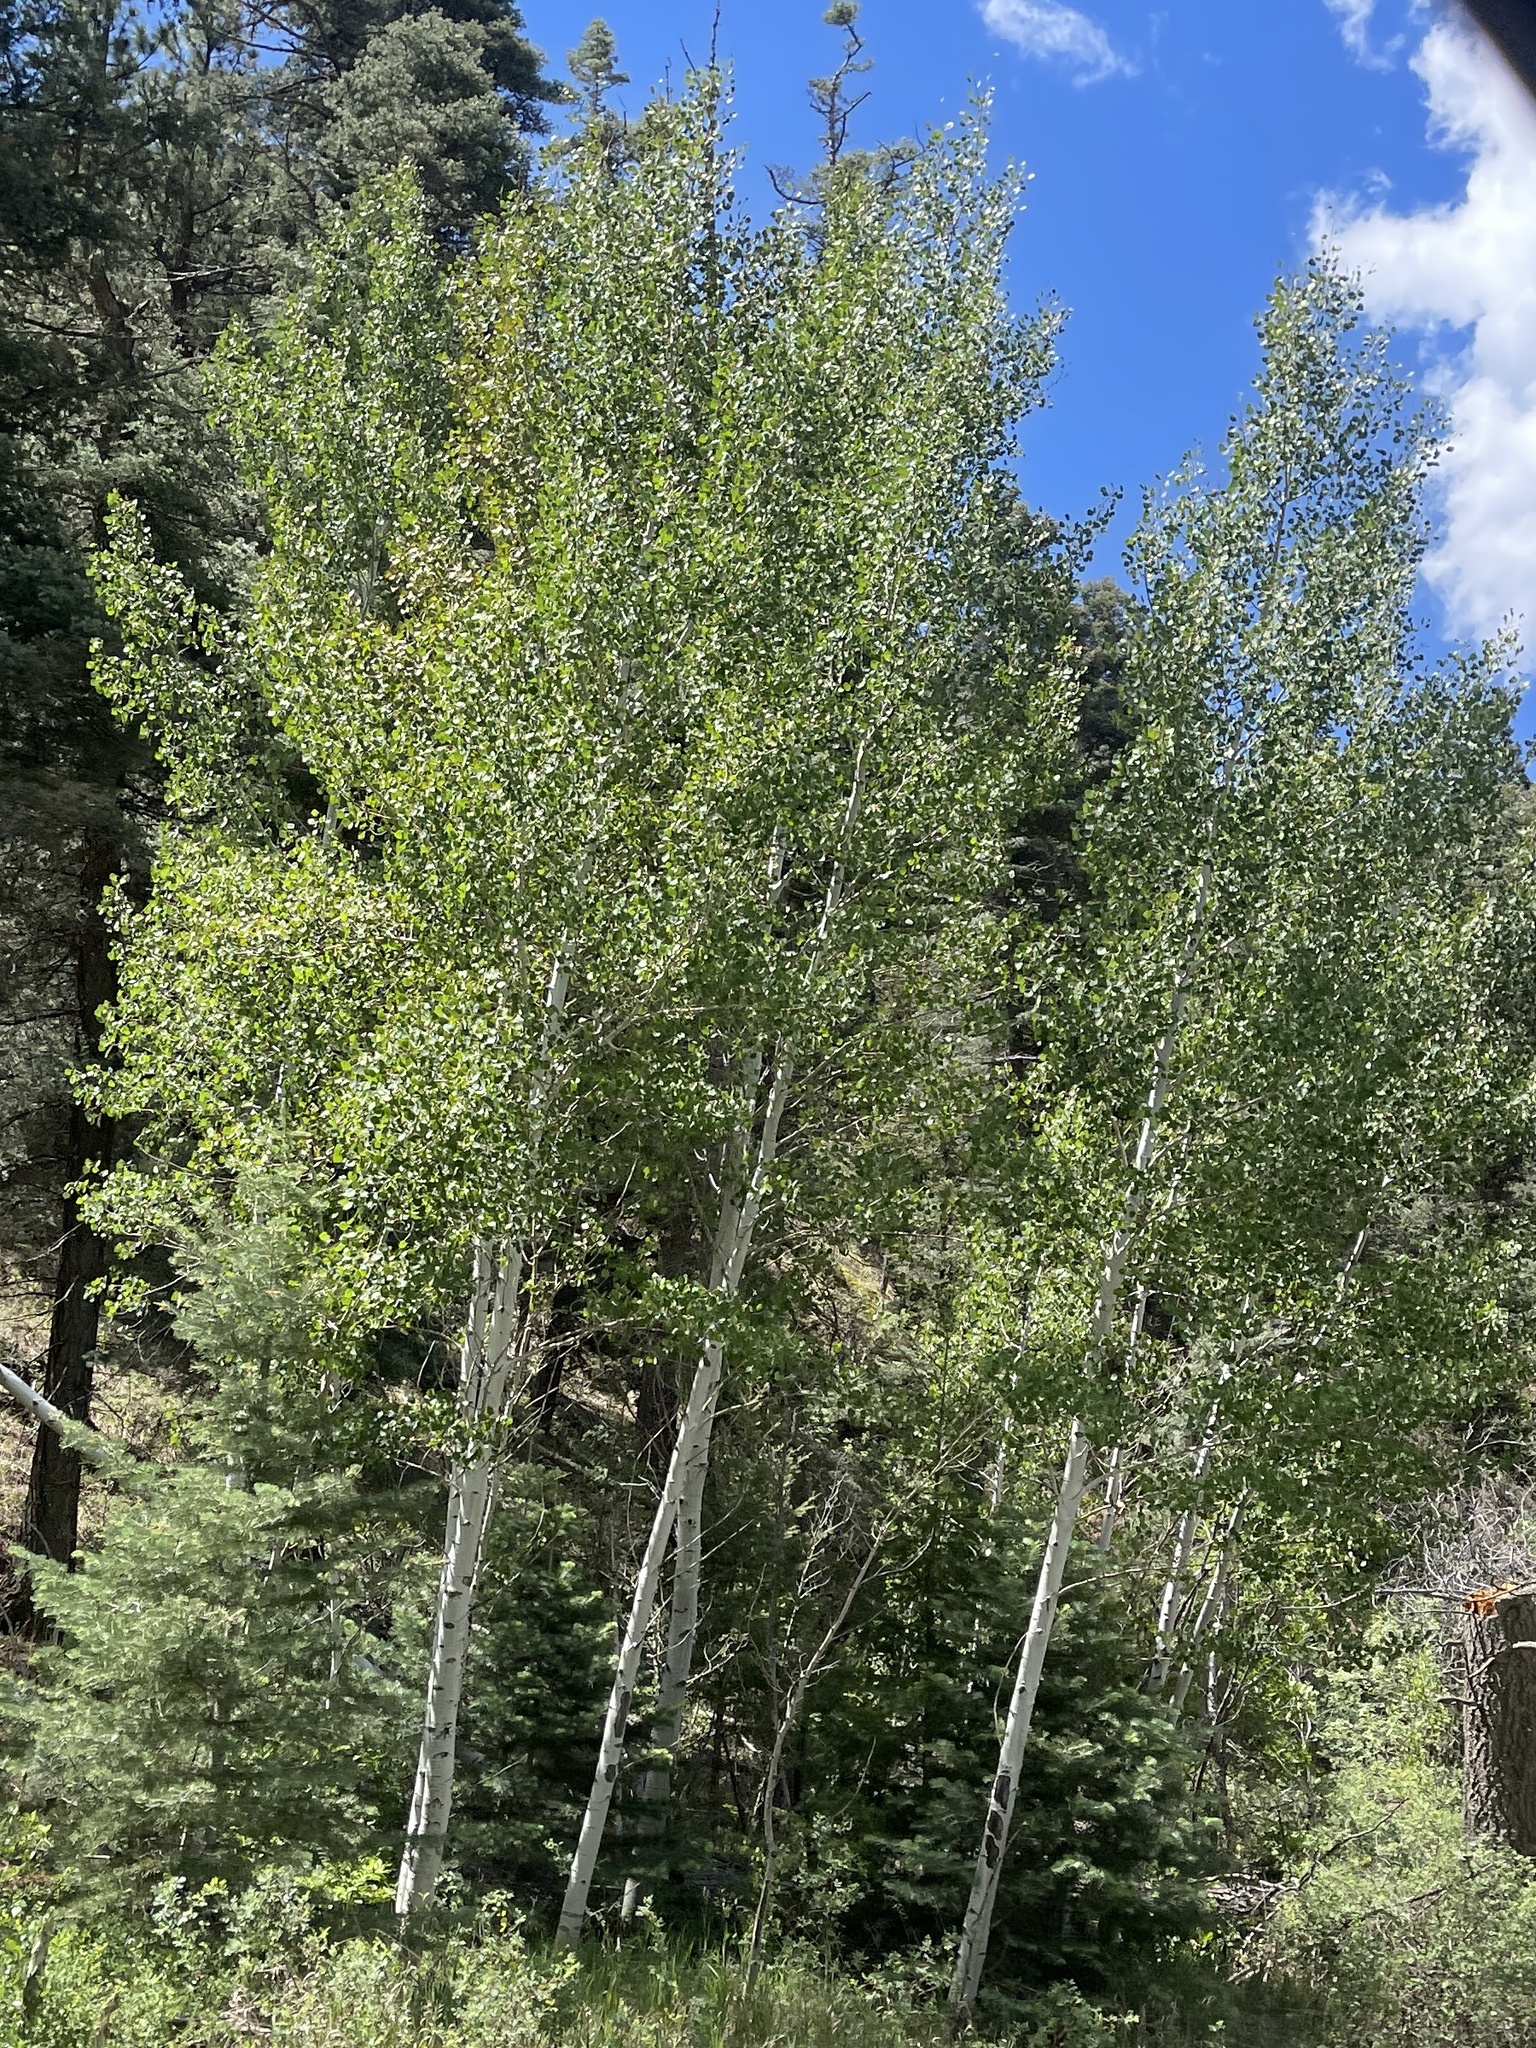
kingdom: Plantae
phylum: Tracheophyta
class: Magnoliopsida
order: Malpighiales
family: Salicaceae
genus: Populus
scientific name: Populus tremuloides
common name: Quaking aspen
